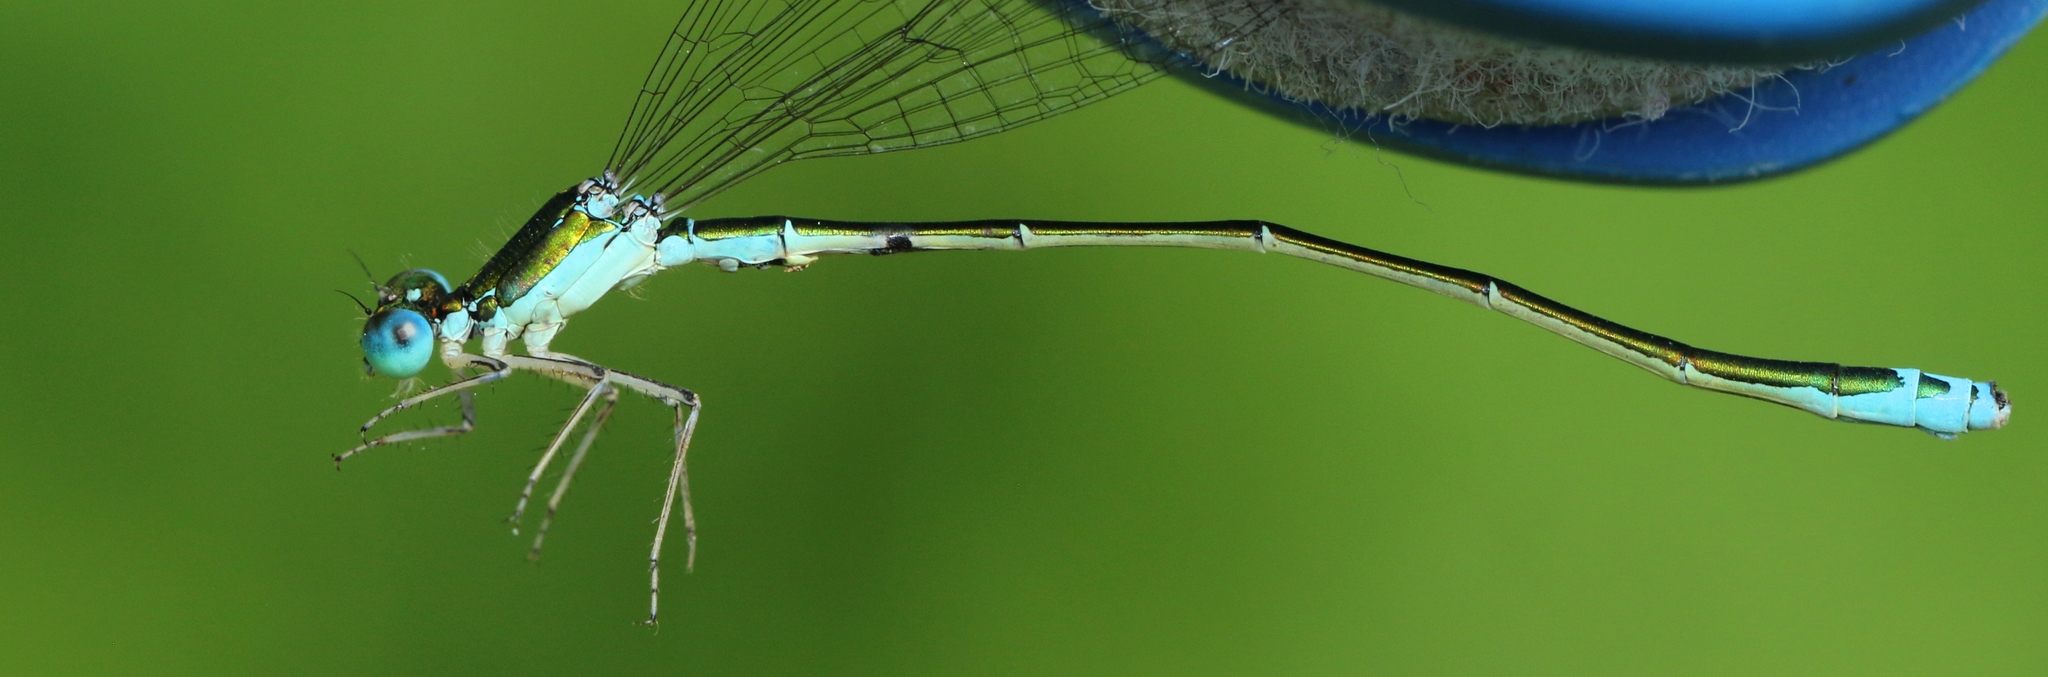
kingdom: Animalia
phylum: Arthropoda
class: Insecta
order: Odonata
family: Coenagrionidae
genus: Nehalennia
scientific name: Nehalennia irene
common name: Sedge sprite
